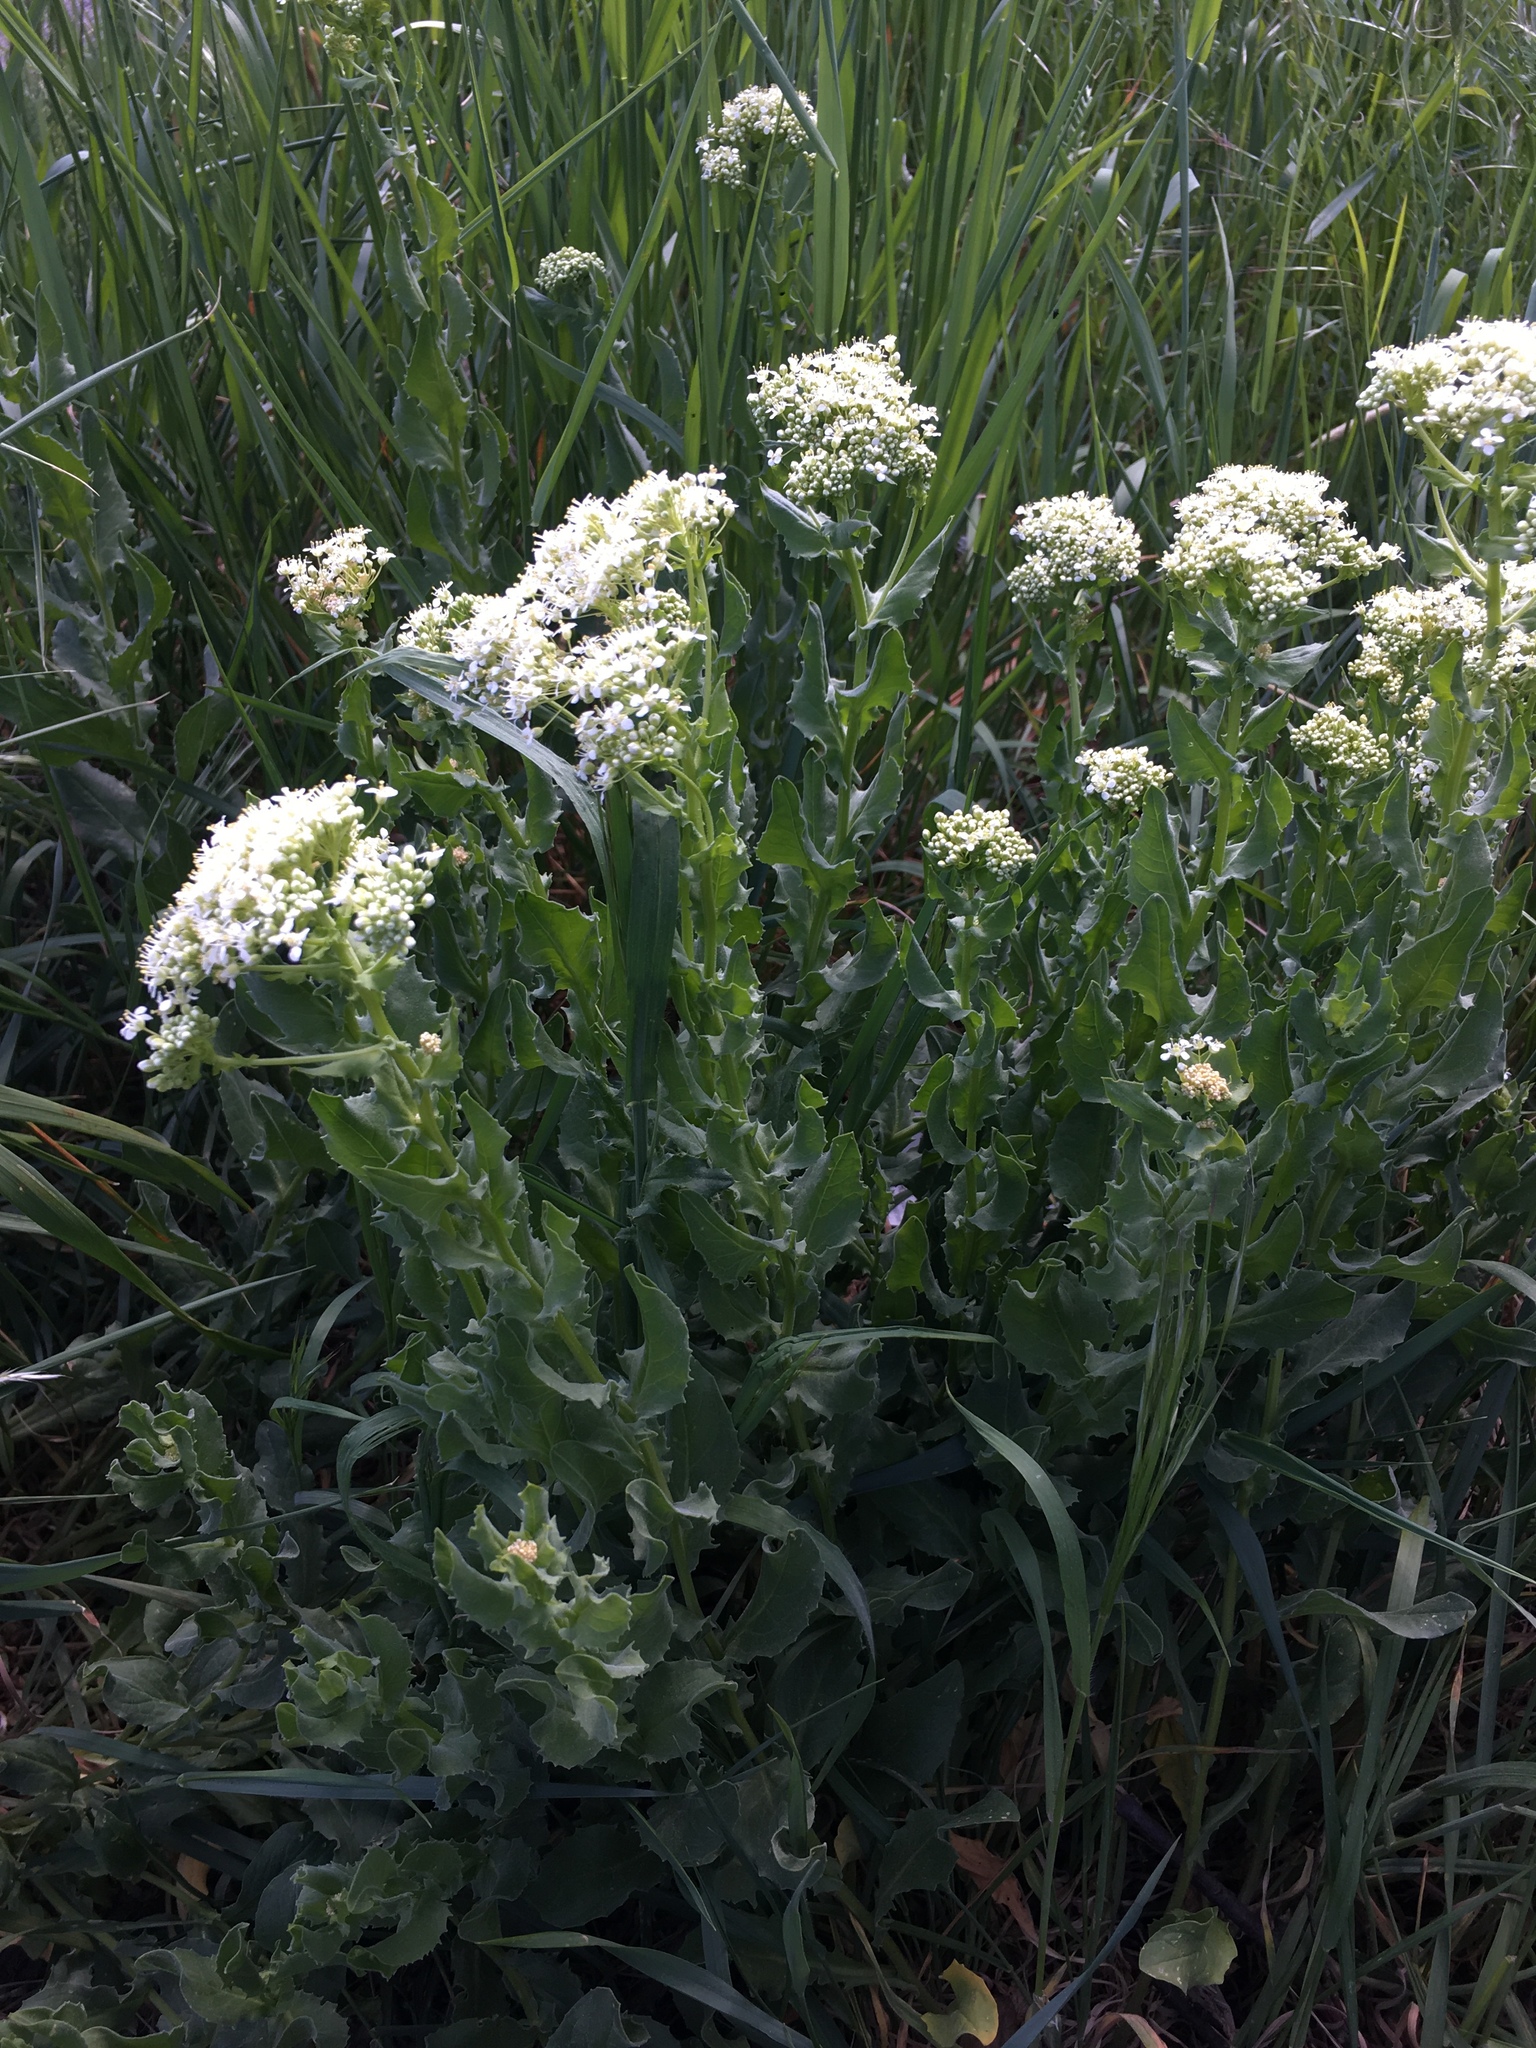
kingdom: Plantae
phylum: Tracheophyta
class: Magnoliopsida
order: Brassicales
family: Brassicaceae
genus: Lepidium
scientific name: Lepidium draba
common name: Hoary cress
